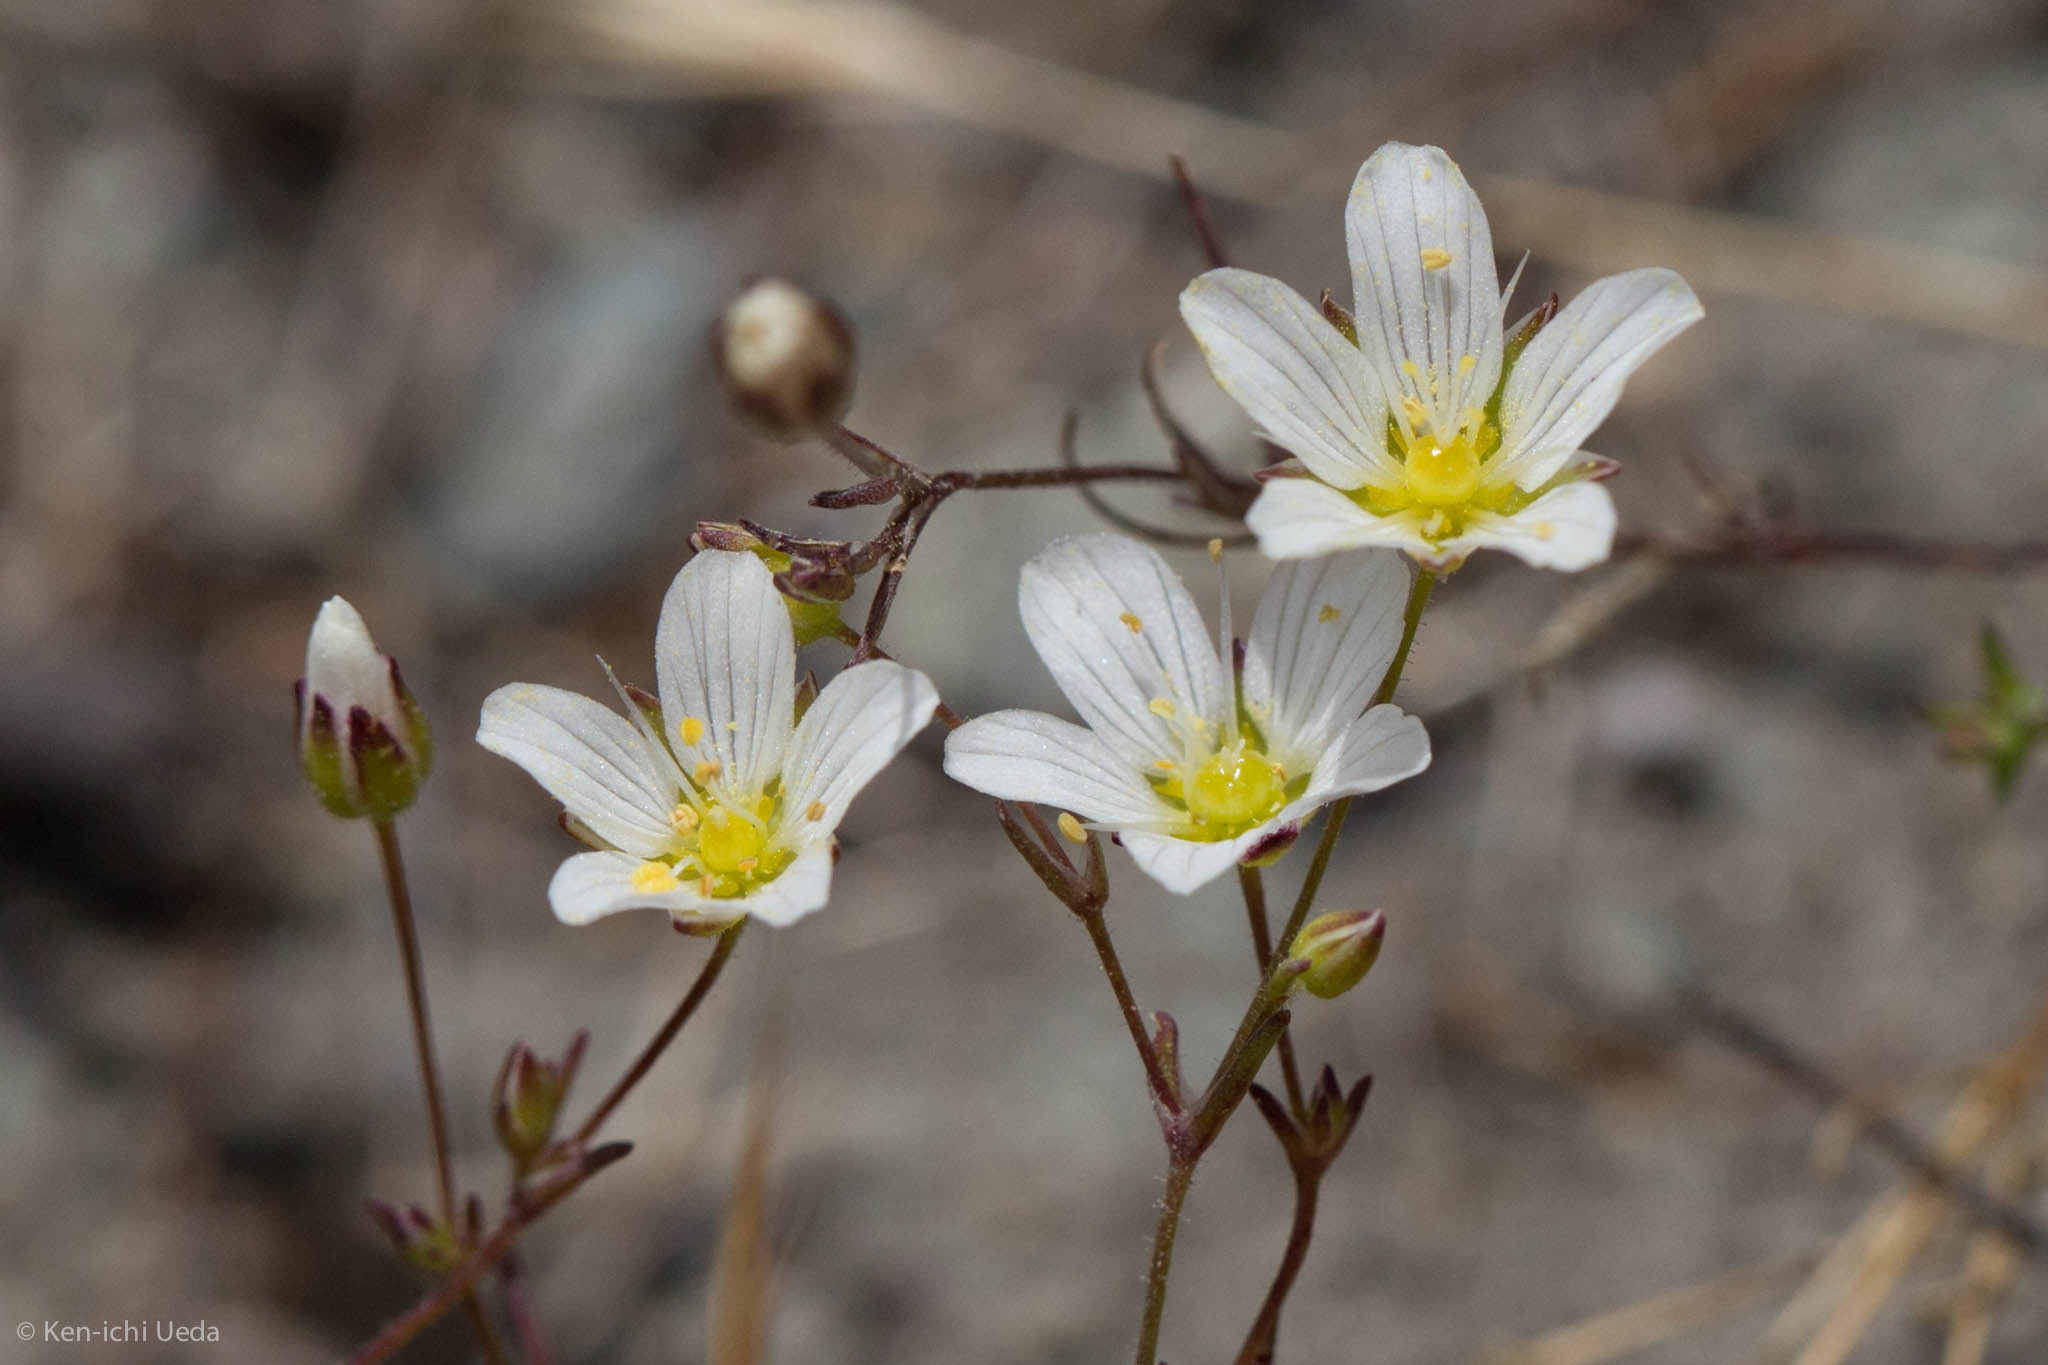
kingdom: Plantae
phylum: Tracheophyta
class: Magnoliopsida
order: Caryophyllales
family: Caryophyllaceae
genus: Sabulina
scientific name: Sabulina douglasii
